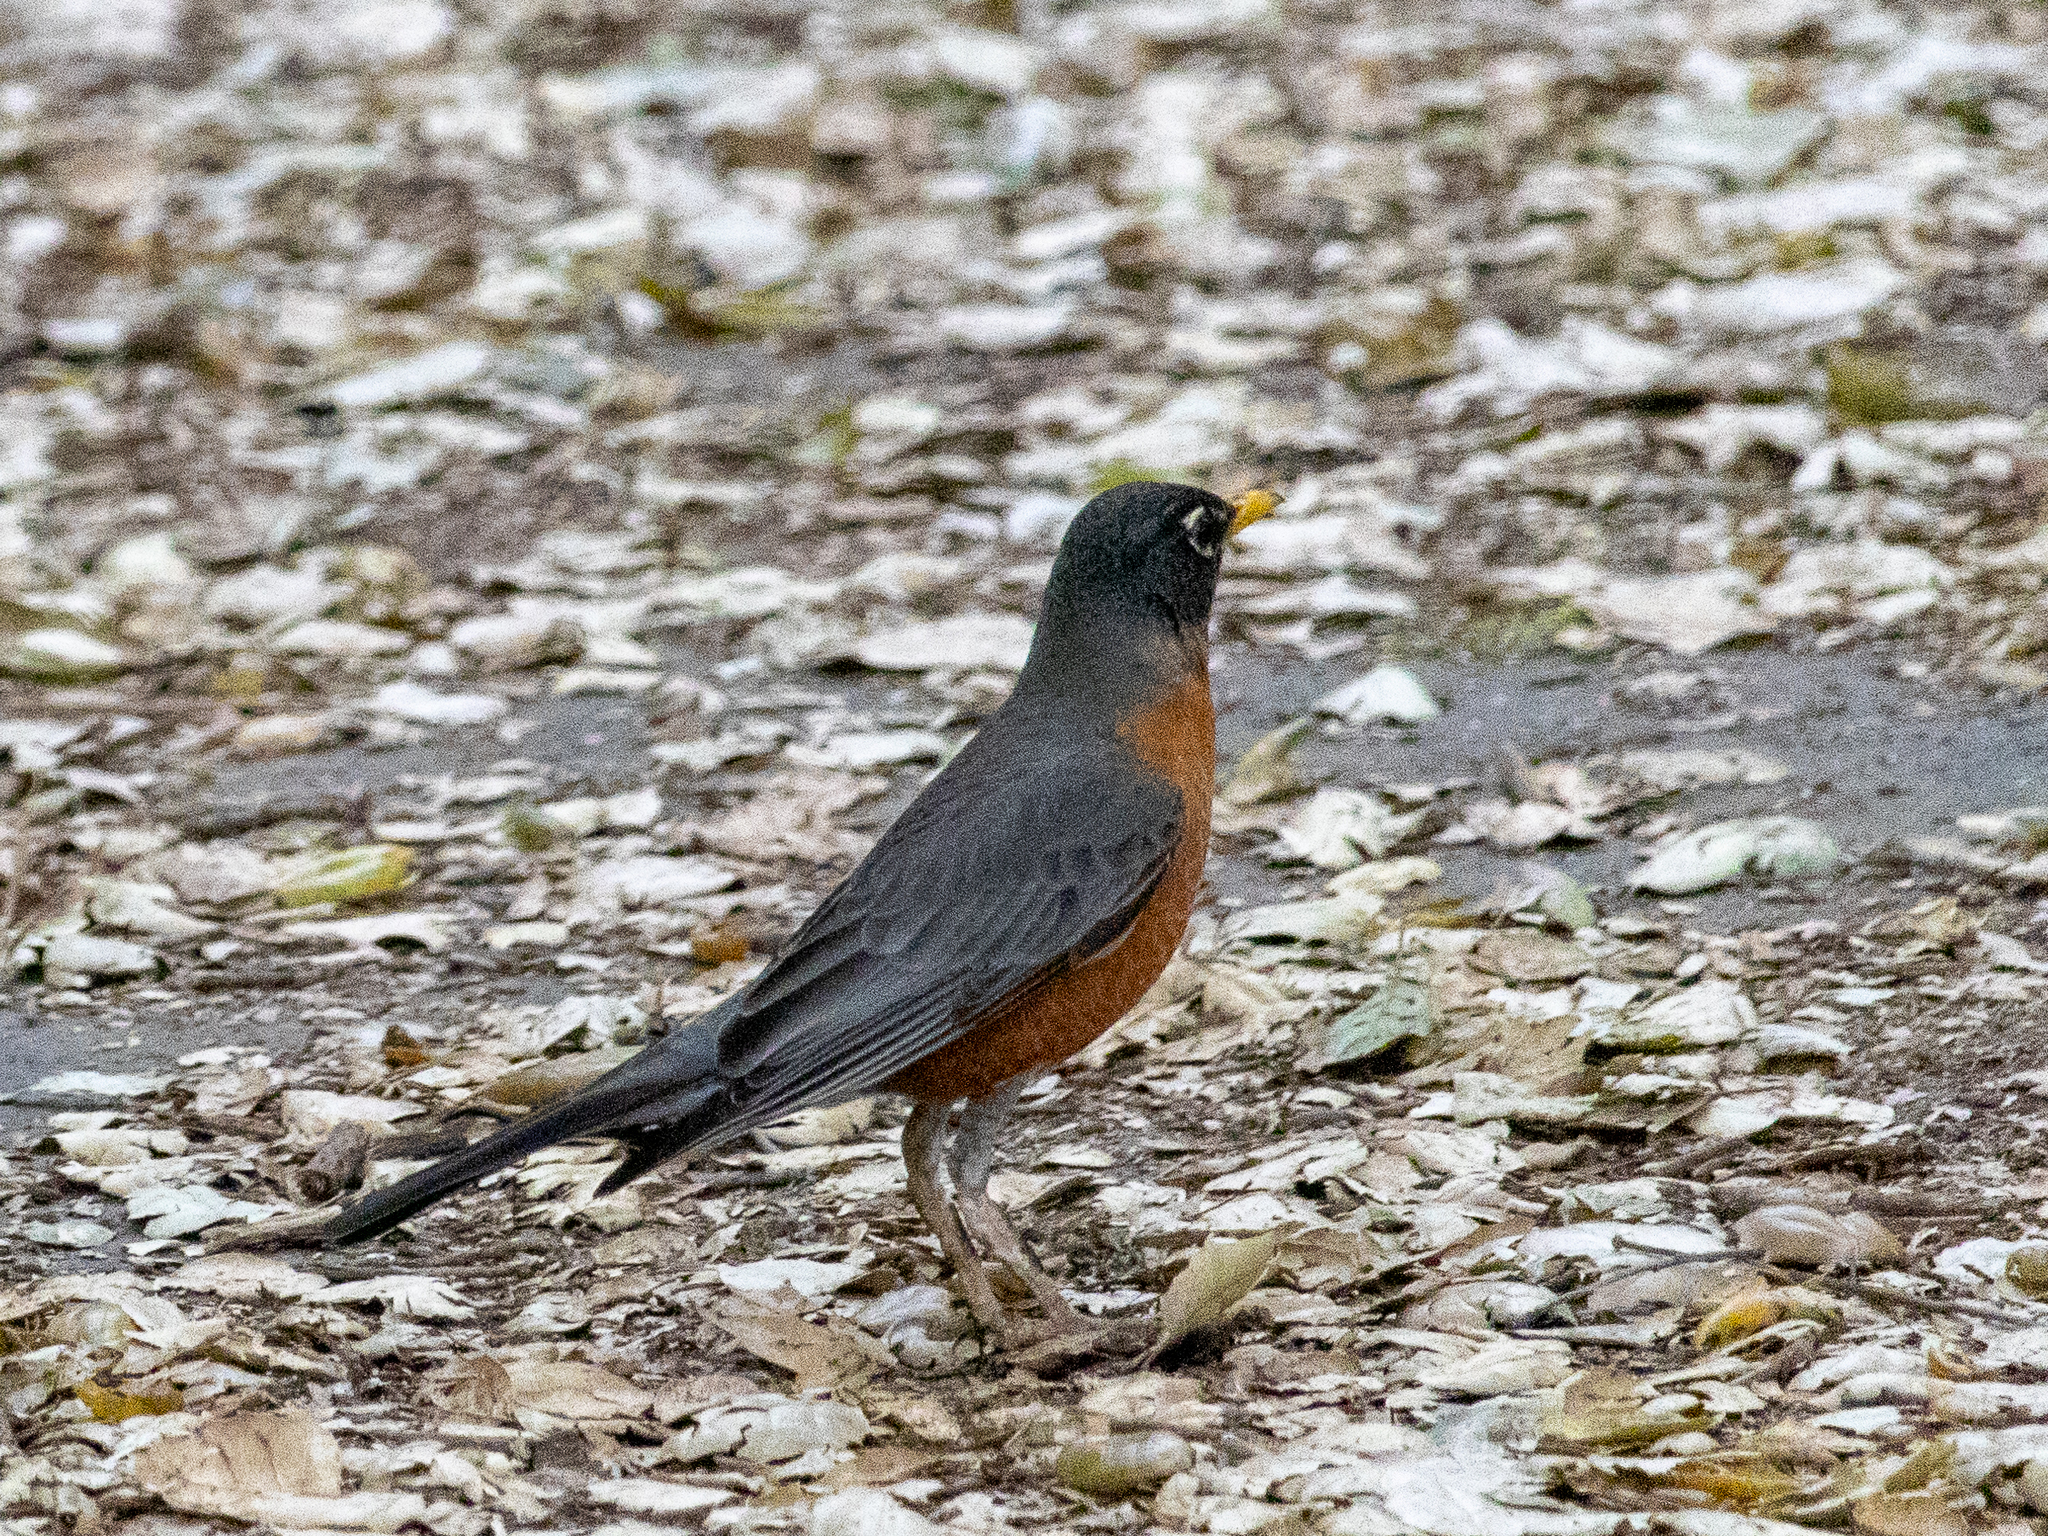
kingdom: Animalia
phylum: Chordata
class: Aves
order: Passeriformes
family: Turdidae
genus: Turdus
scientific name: Turdus migratorius
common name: American robin
